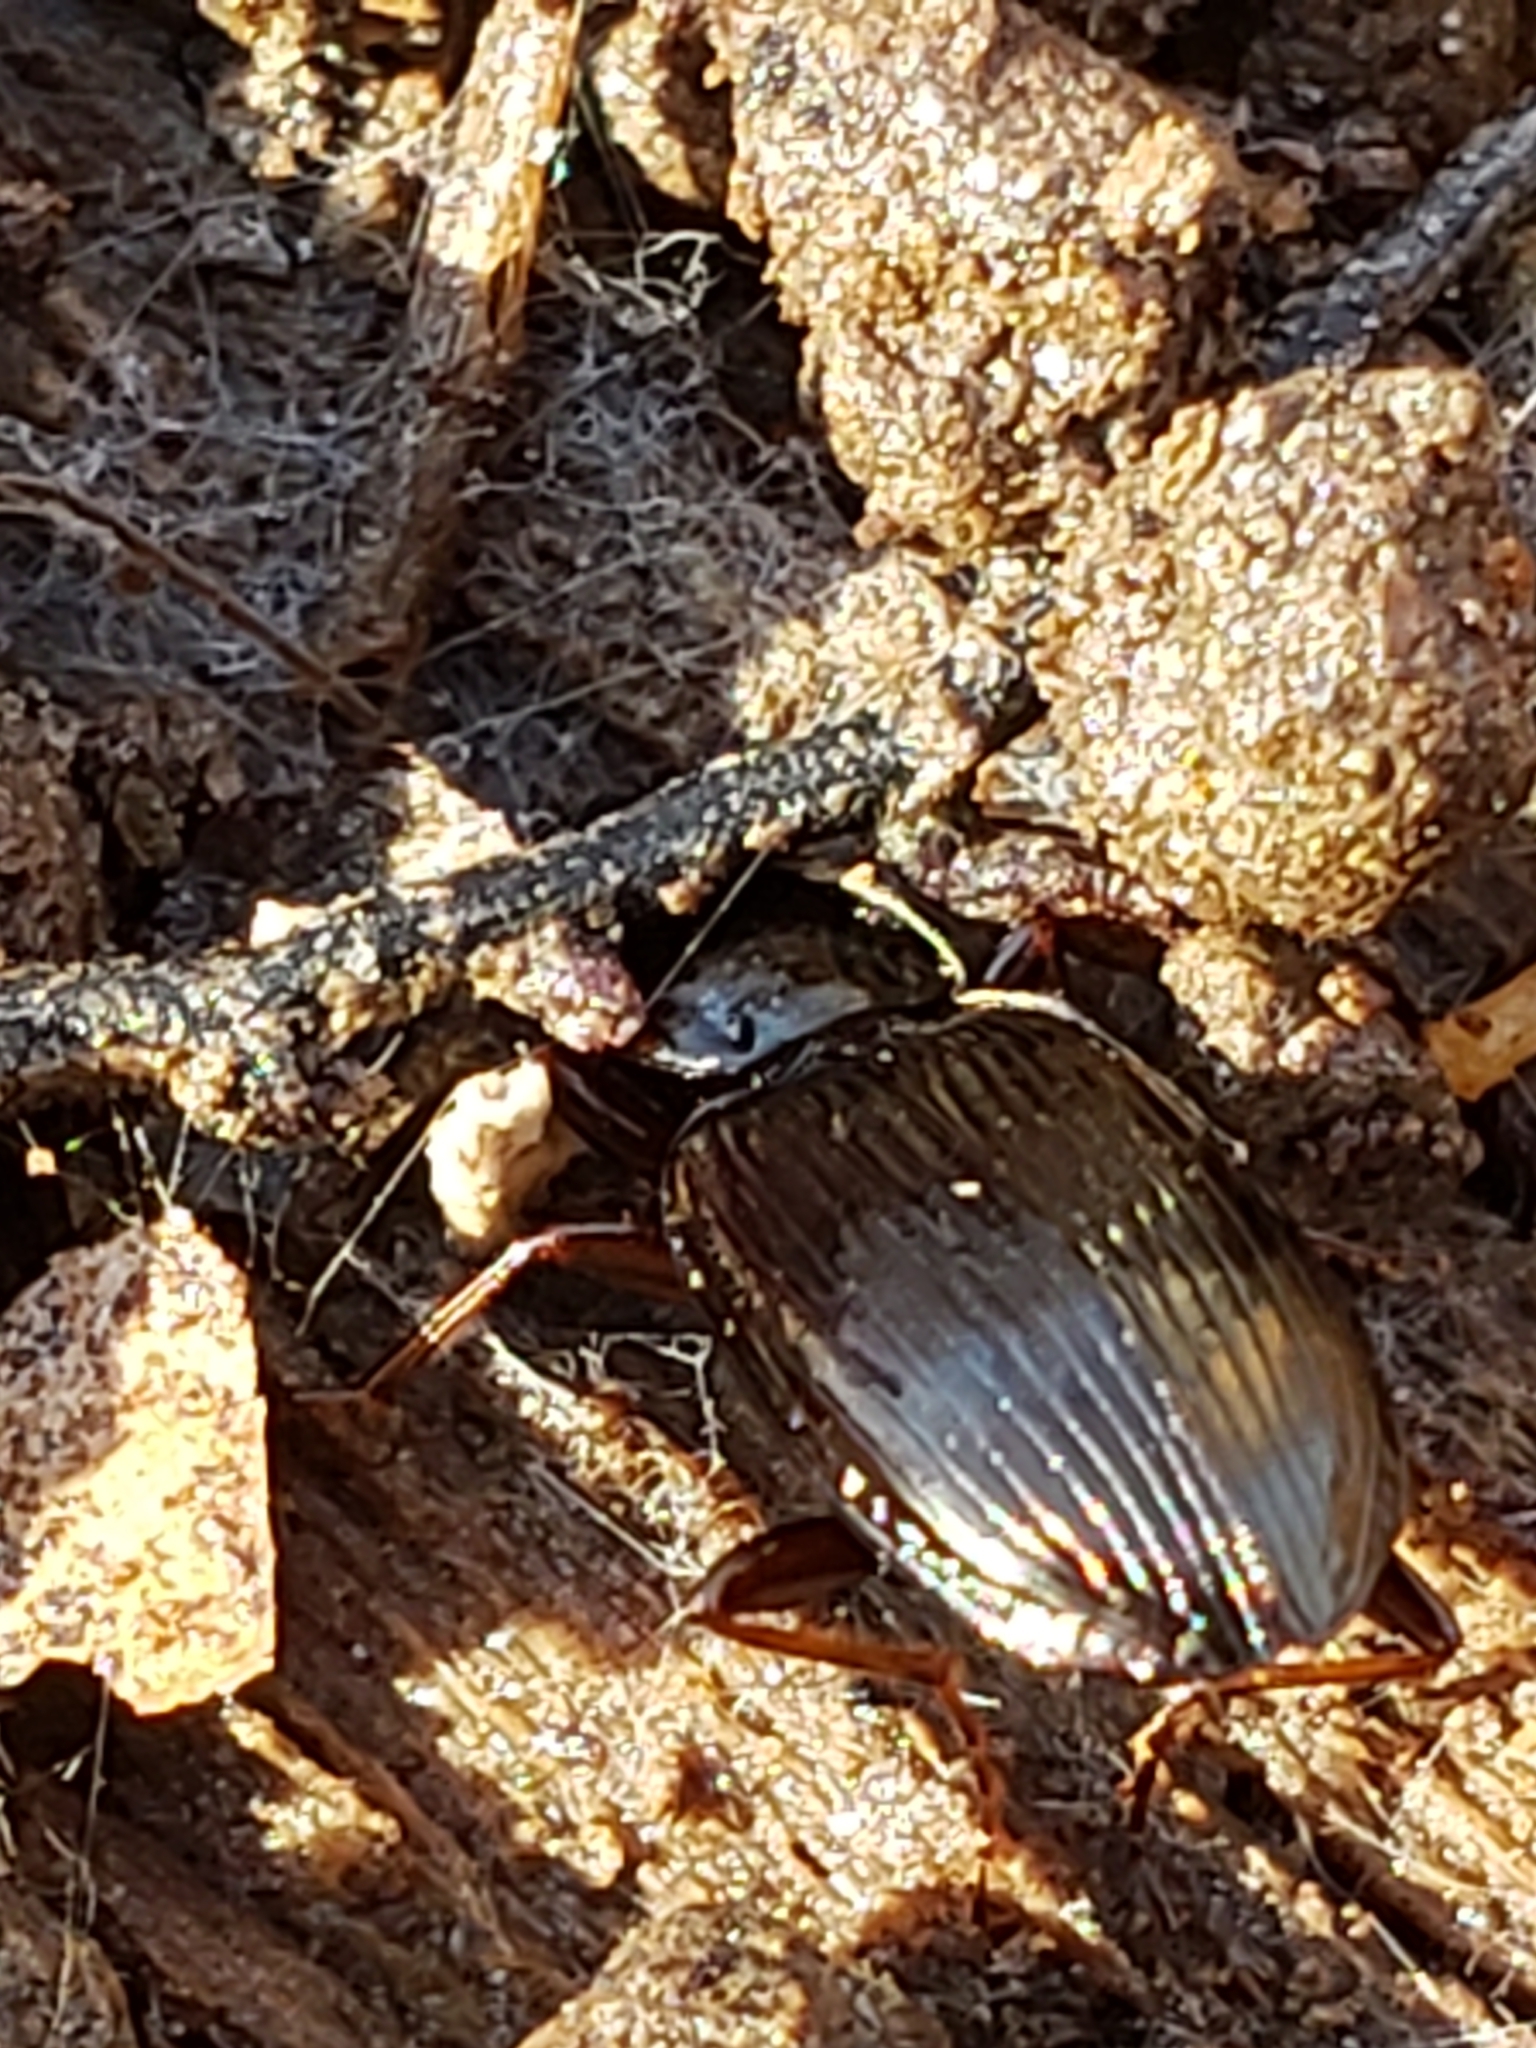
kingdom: Animalia
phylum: Arthropoda
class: Insecta
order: Coleoptera
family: Carabidae
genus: Gastrellarius
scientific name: Gastrellarius honestus
